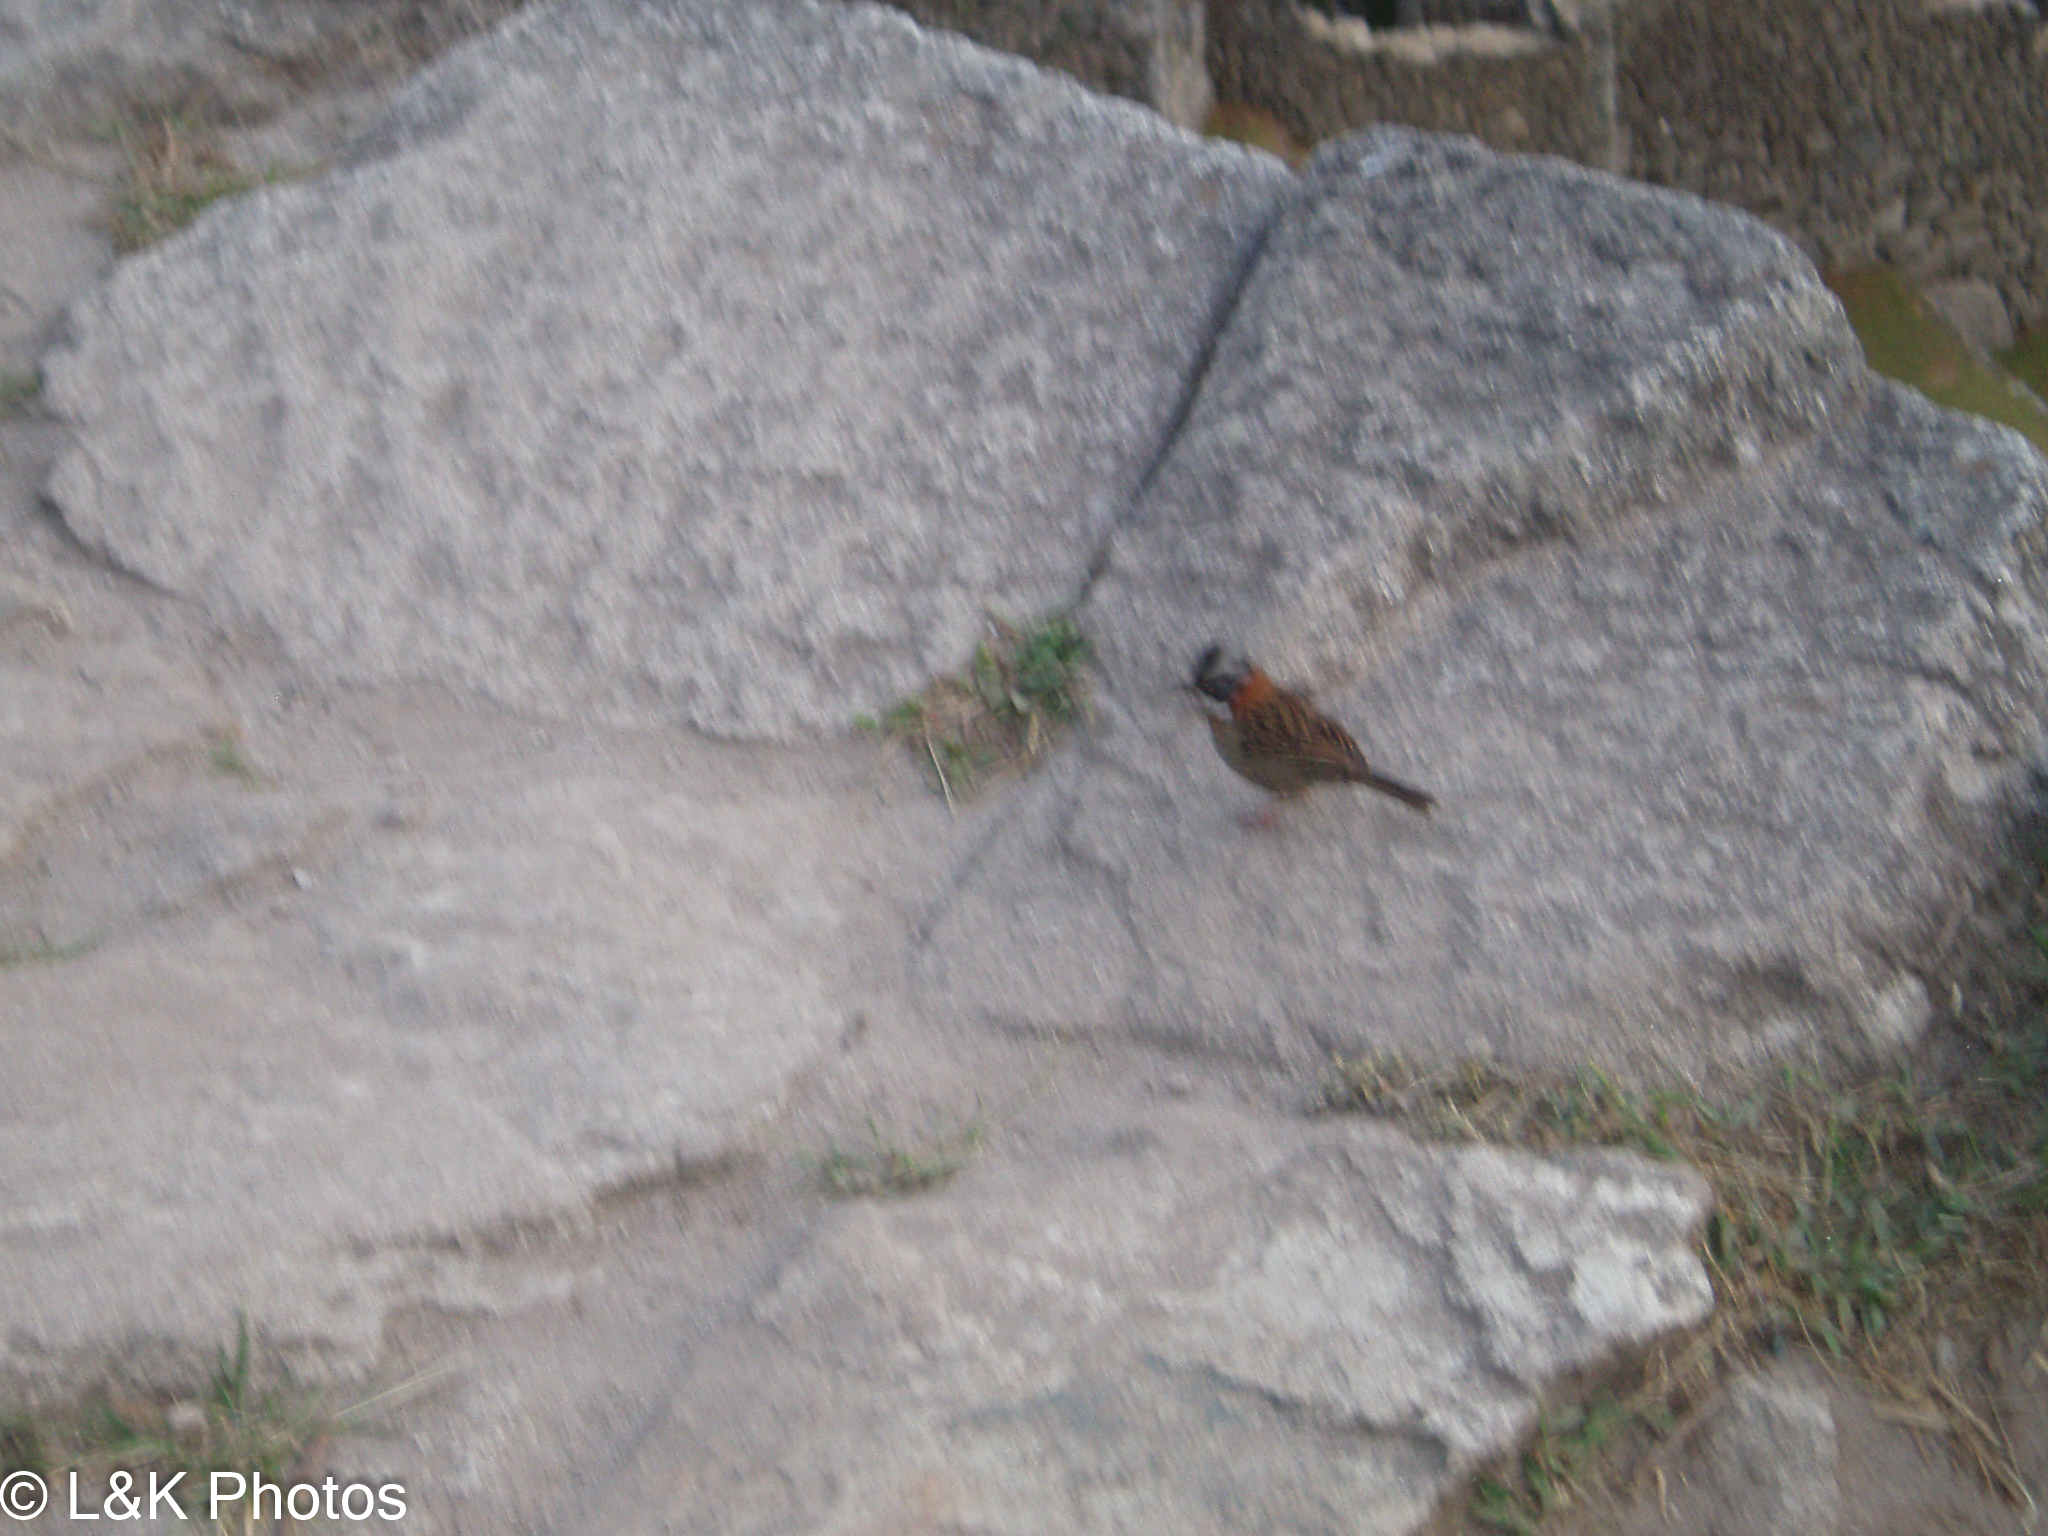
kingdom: Animalia
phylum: Chordata
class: Aves
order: Passeriformes
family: Passerellidae
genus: Zonotrichia
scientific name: Zonotrichia capensis
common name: Rufous-collared sparrow
